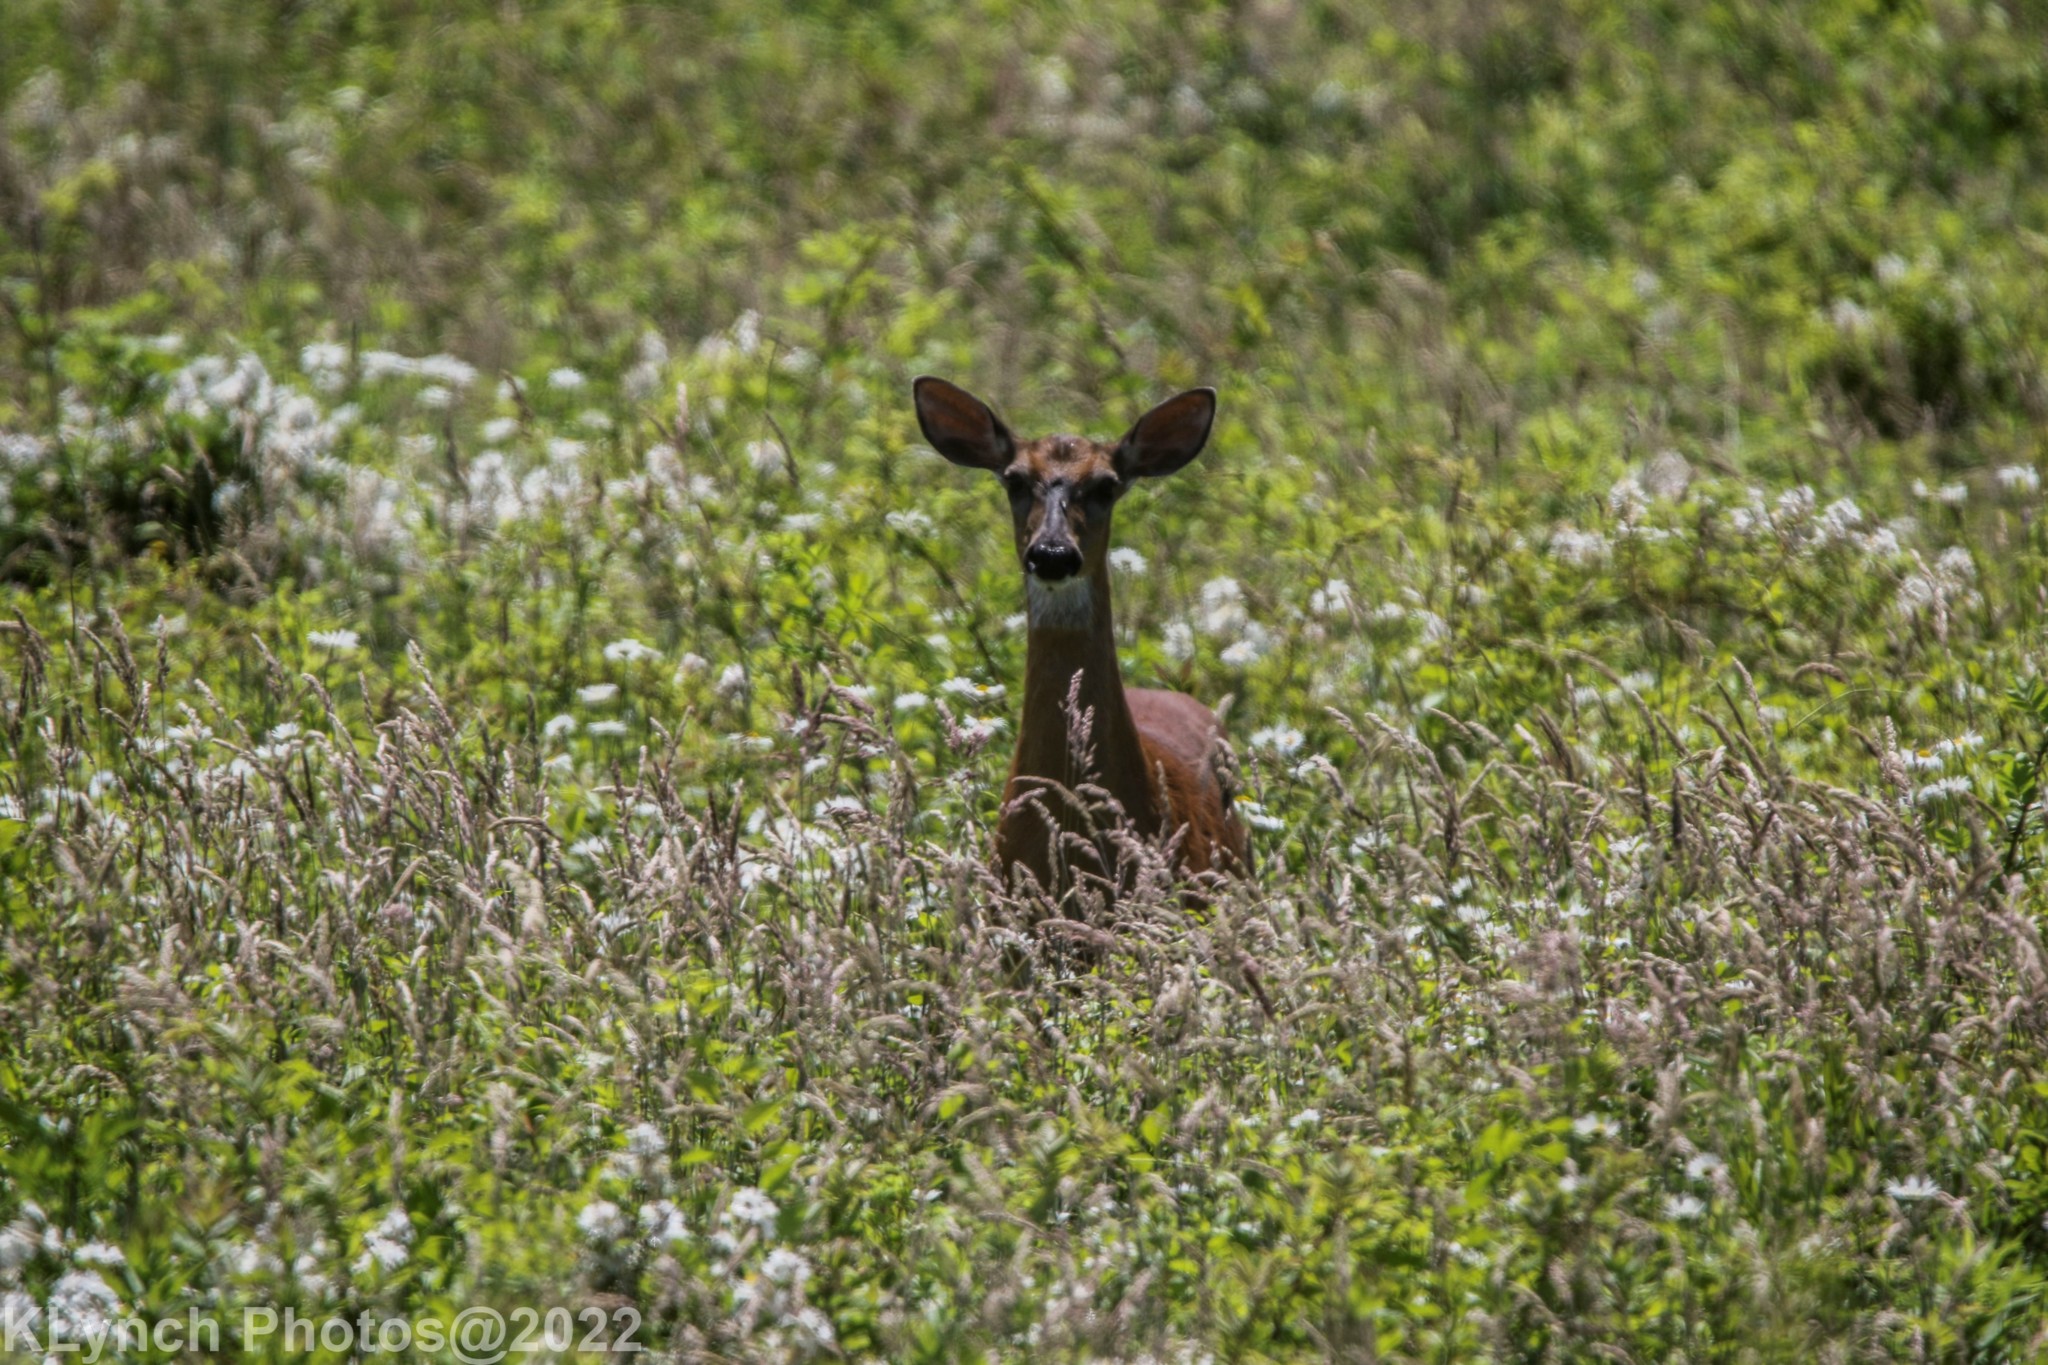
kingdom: Animalia
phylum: Chordata
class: Mammalia
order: Artiodactyla
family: Cervidae
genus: Odocoileus
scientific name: Odocoileus virginianus
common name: White-tailed deer
